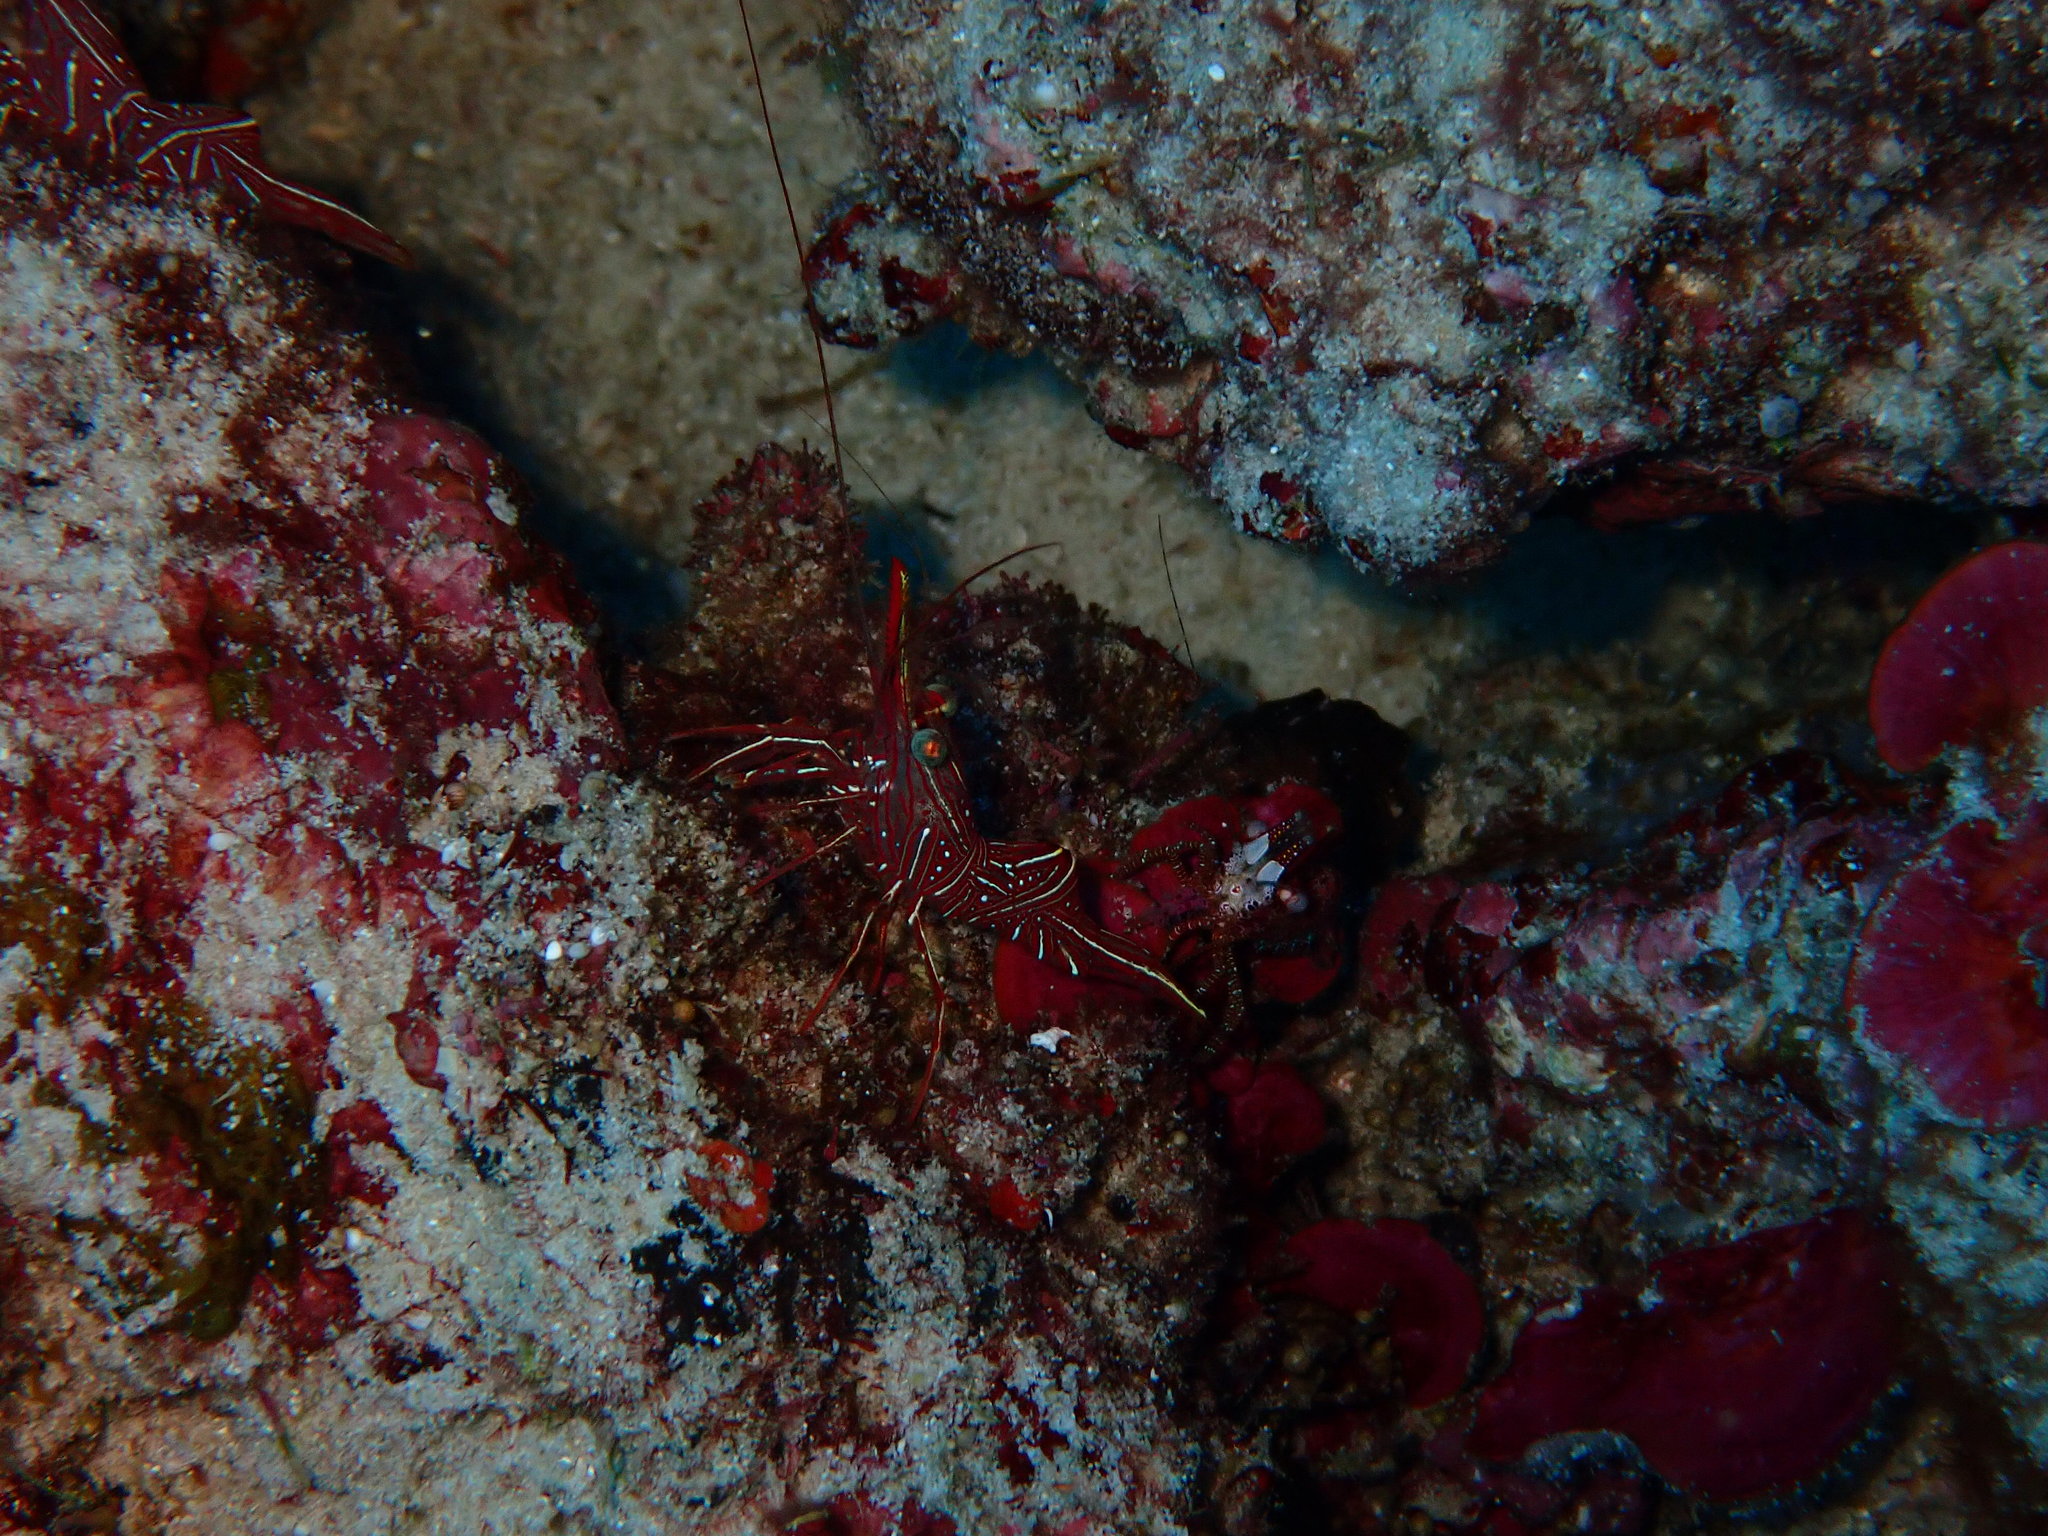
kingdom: Animalia
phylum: Arthropoda
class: Malacostraca
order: Decapoda
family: Rhynchocinetidae
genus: Rhynchocinetes
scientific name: Rhynchocinetes durbanensis
